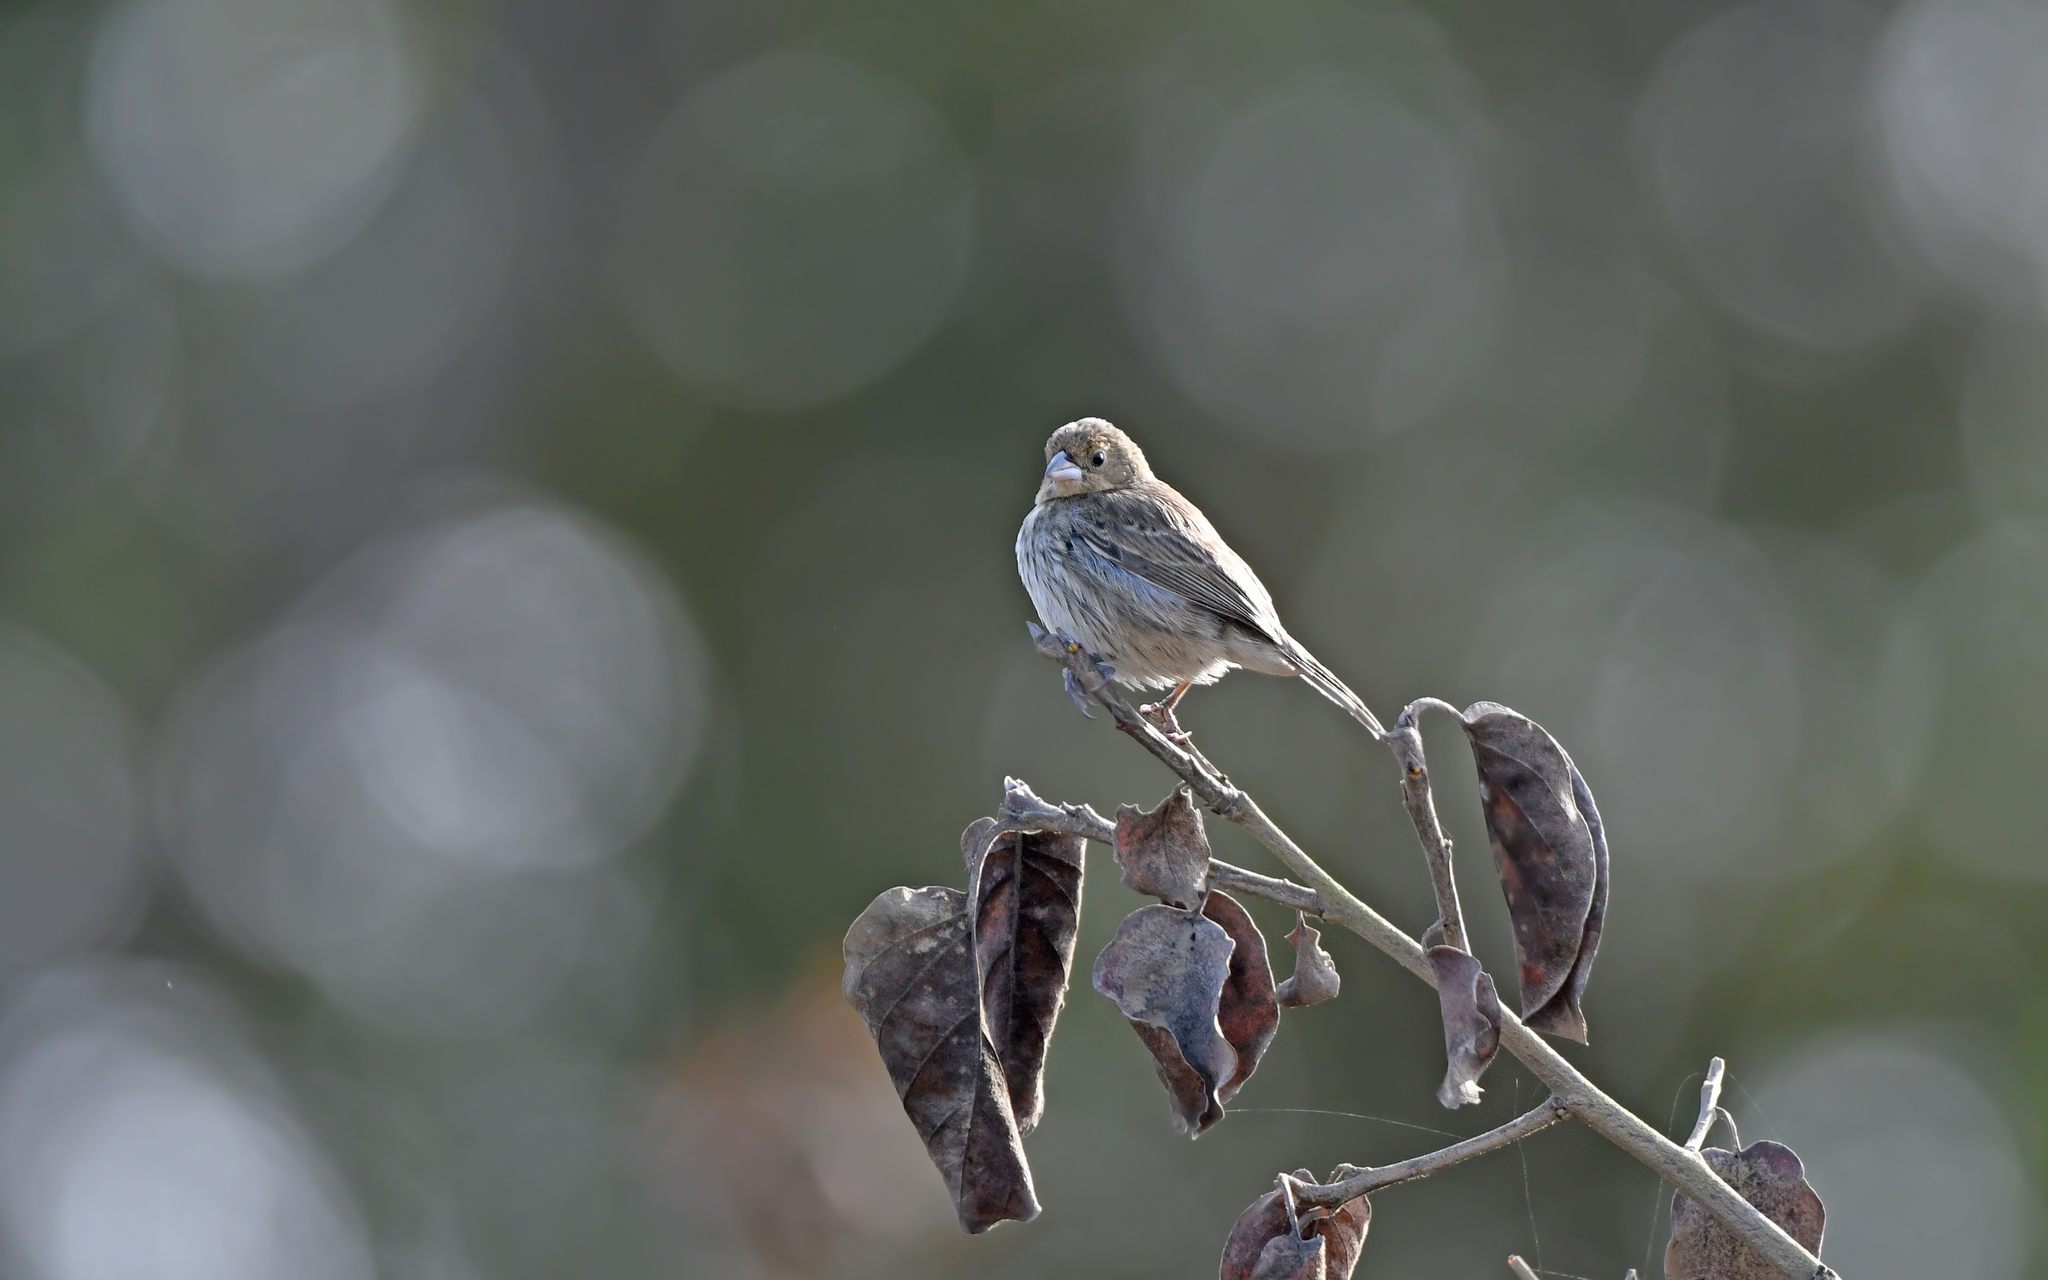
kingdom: Animalia
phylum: Chordata
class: Aves
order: Passeriformes
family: Thraupidae
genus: Volatinia
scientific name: Volatinia jacarina
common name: Blue-black grassquit
